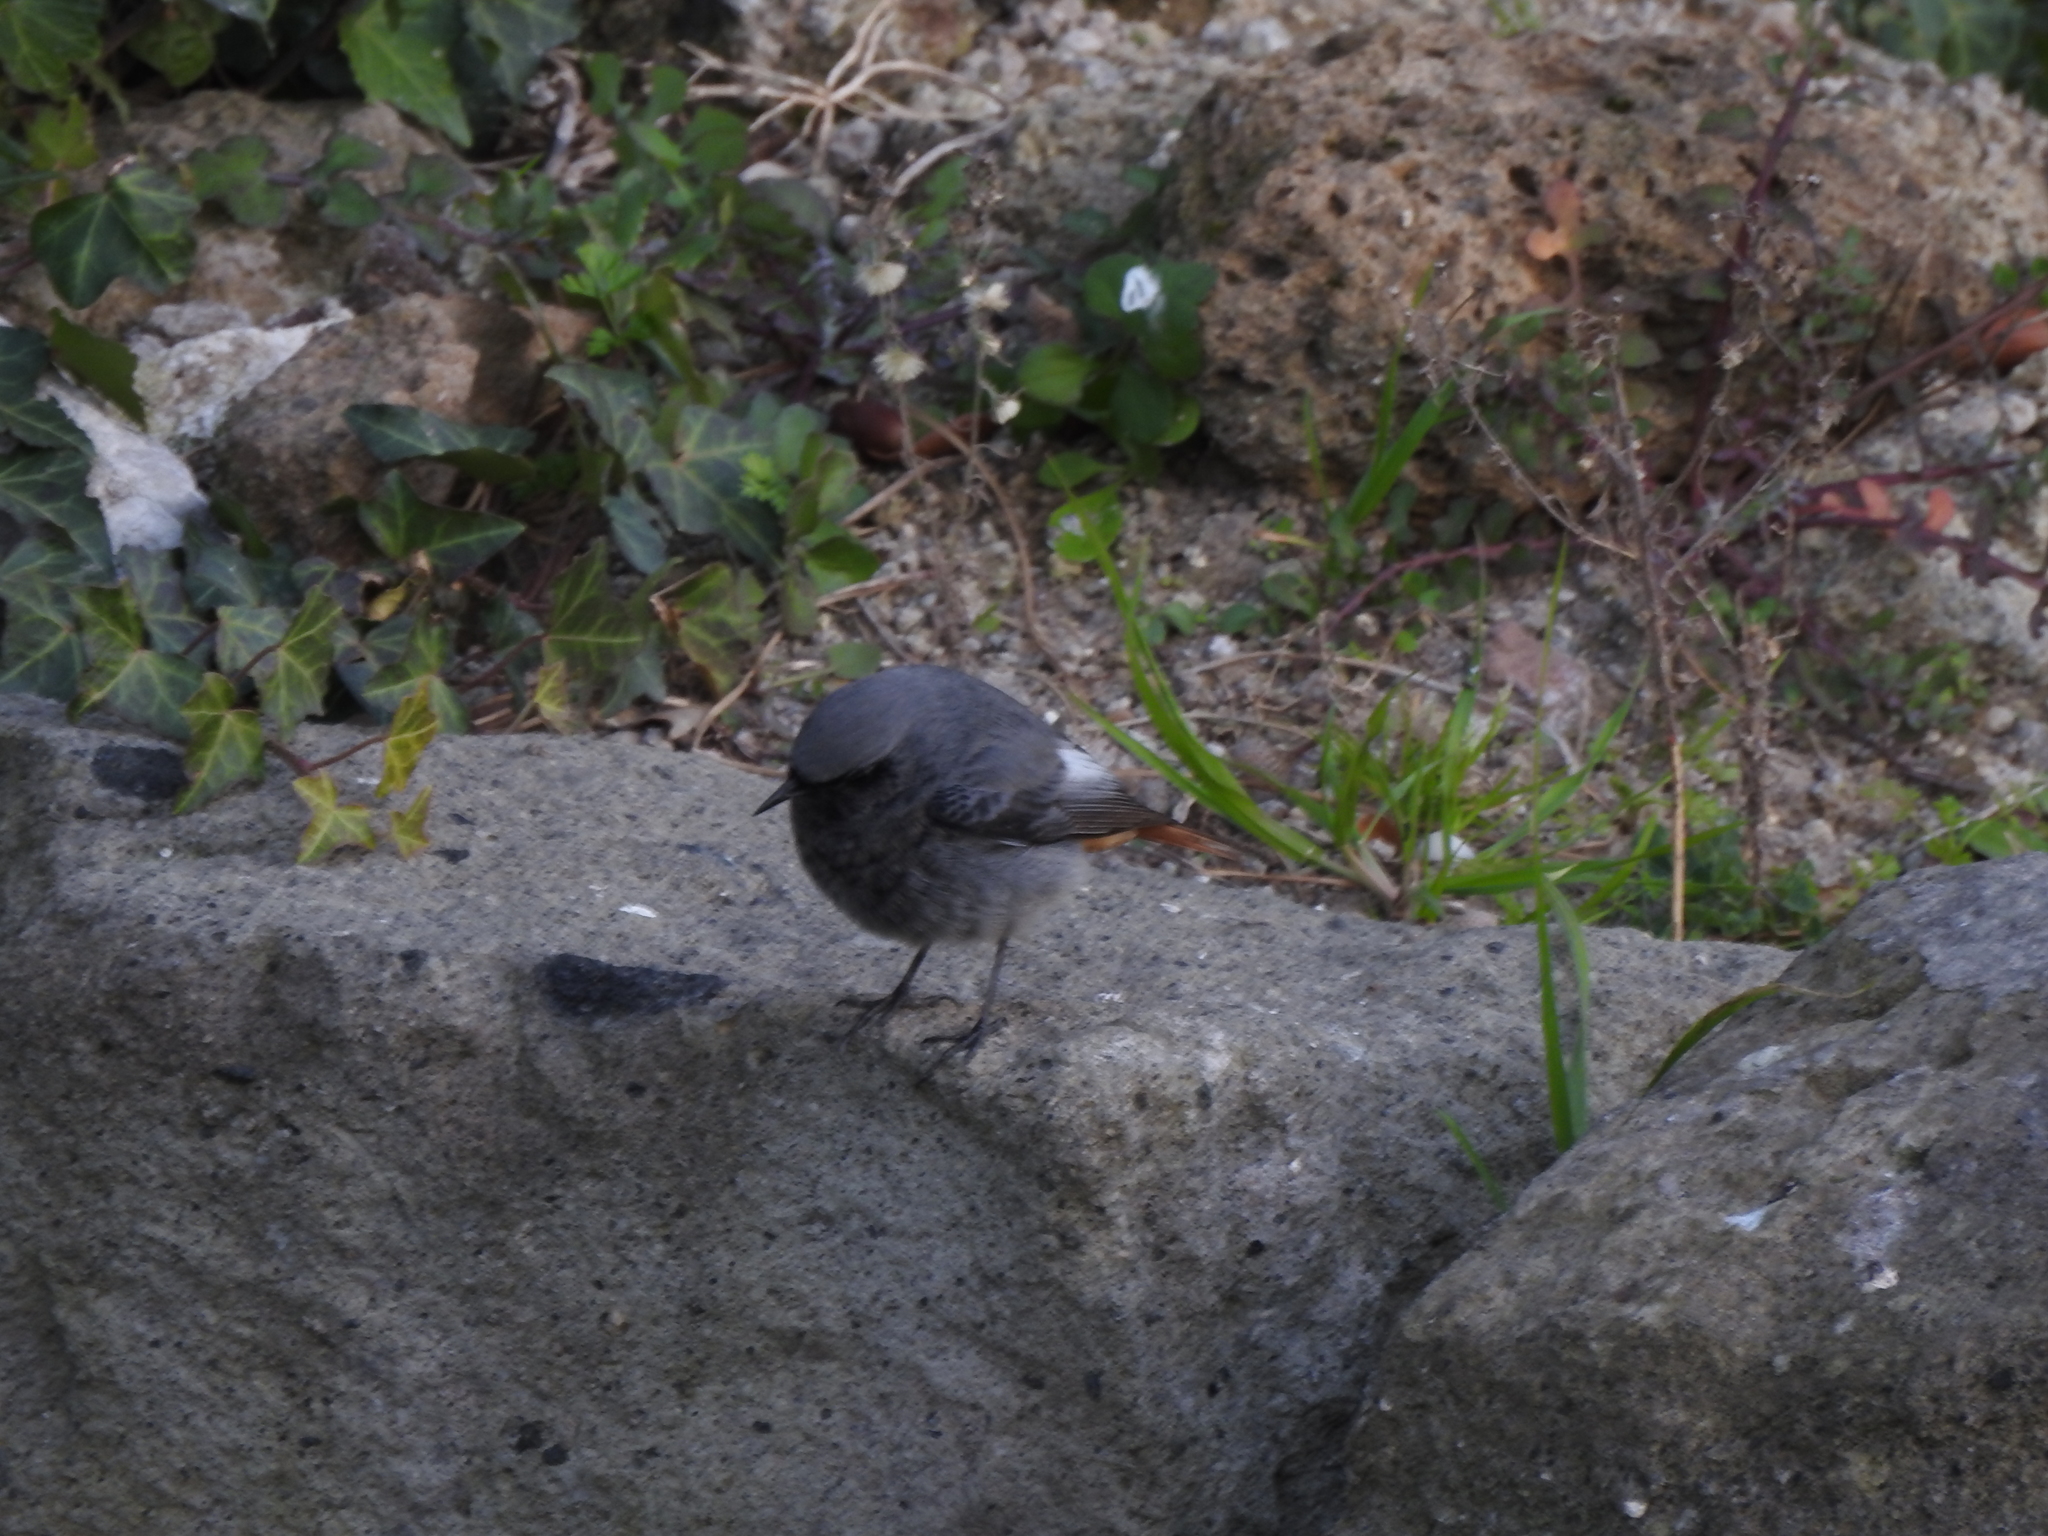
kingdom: Animalia
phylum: Chordata
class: Aves
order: Passeriformes
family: Muscicapidae
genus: Phoenicurus
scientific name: Phoenicurus ochruros
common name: Black redstart
